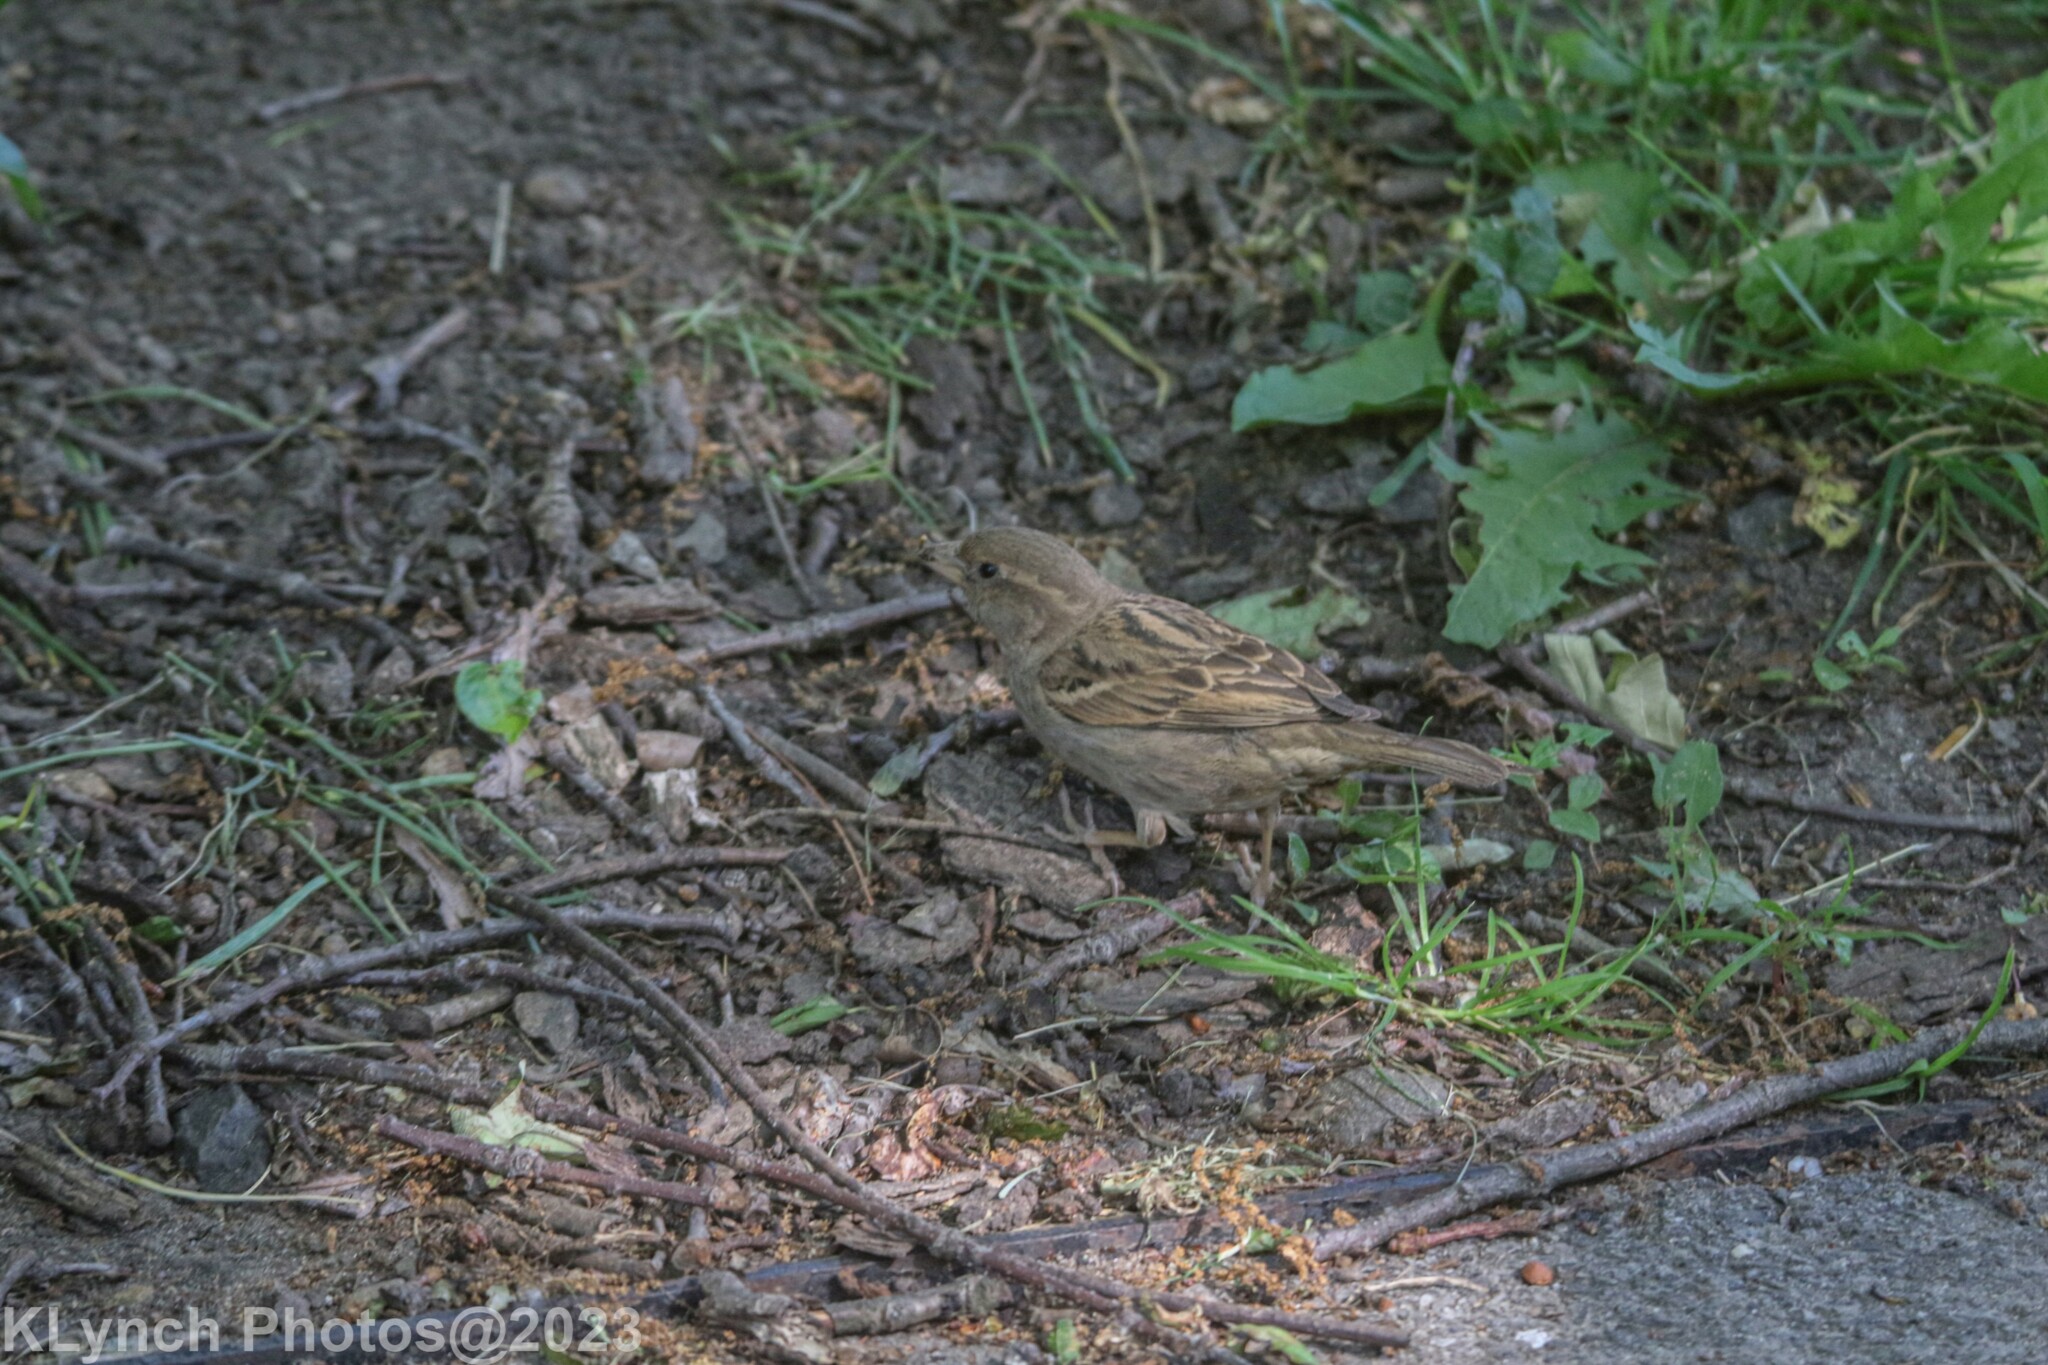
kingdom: Animalia
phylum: Chordata
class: Aves
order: Passeriformes
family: Passeridae
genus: Passer
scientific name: Passer domesticus
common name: House sparrow
